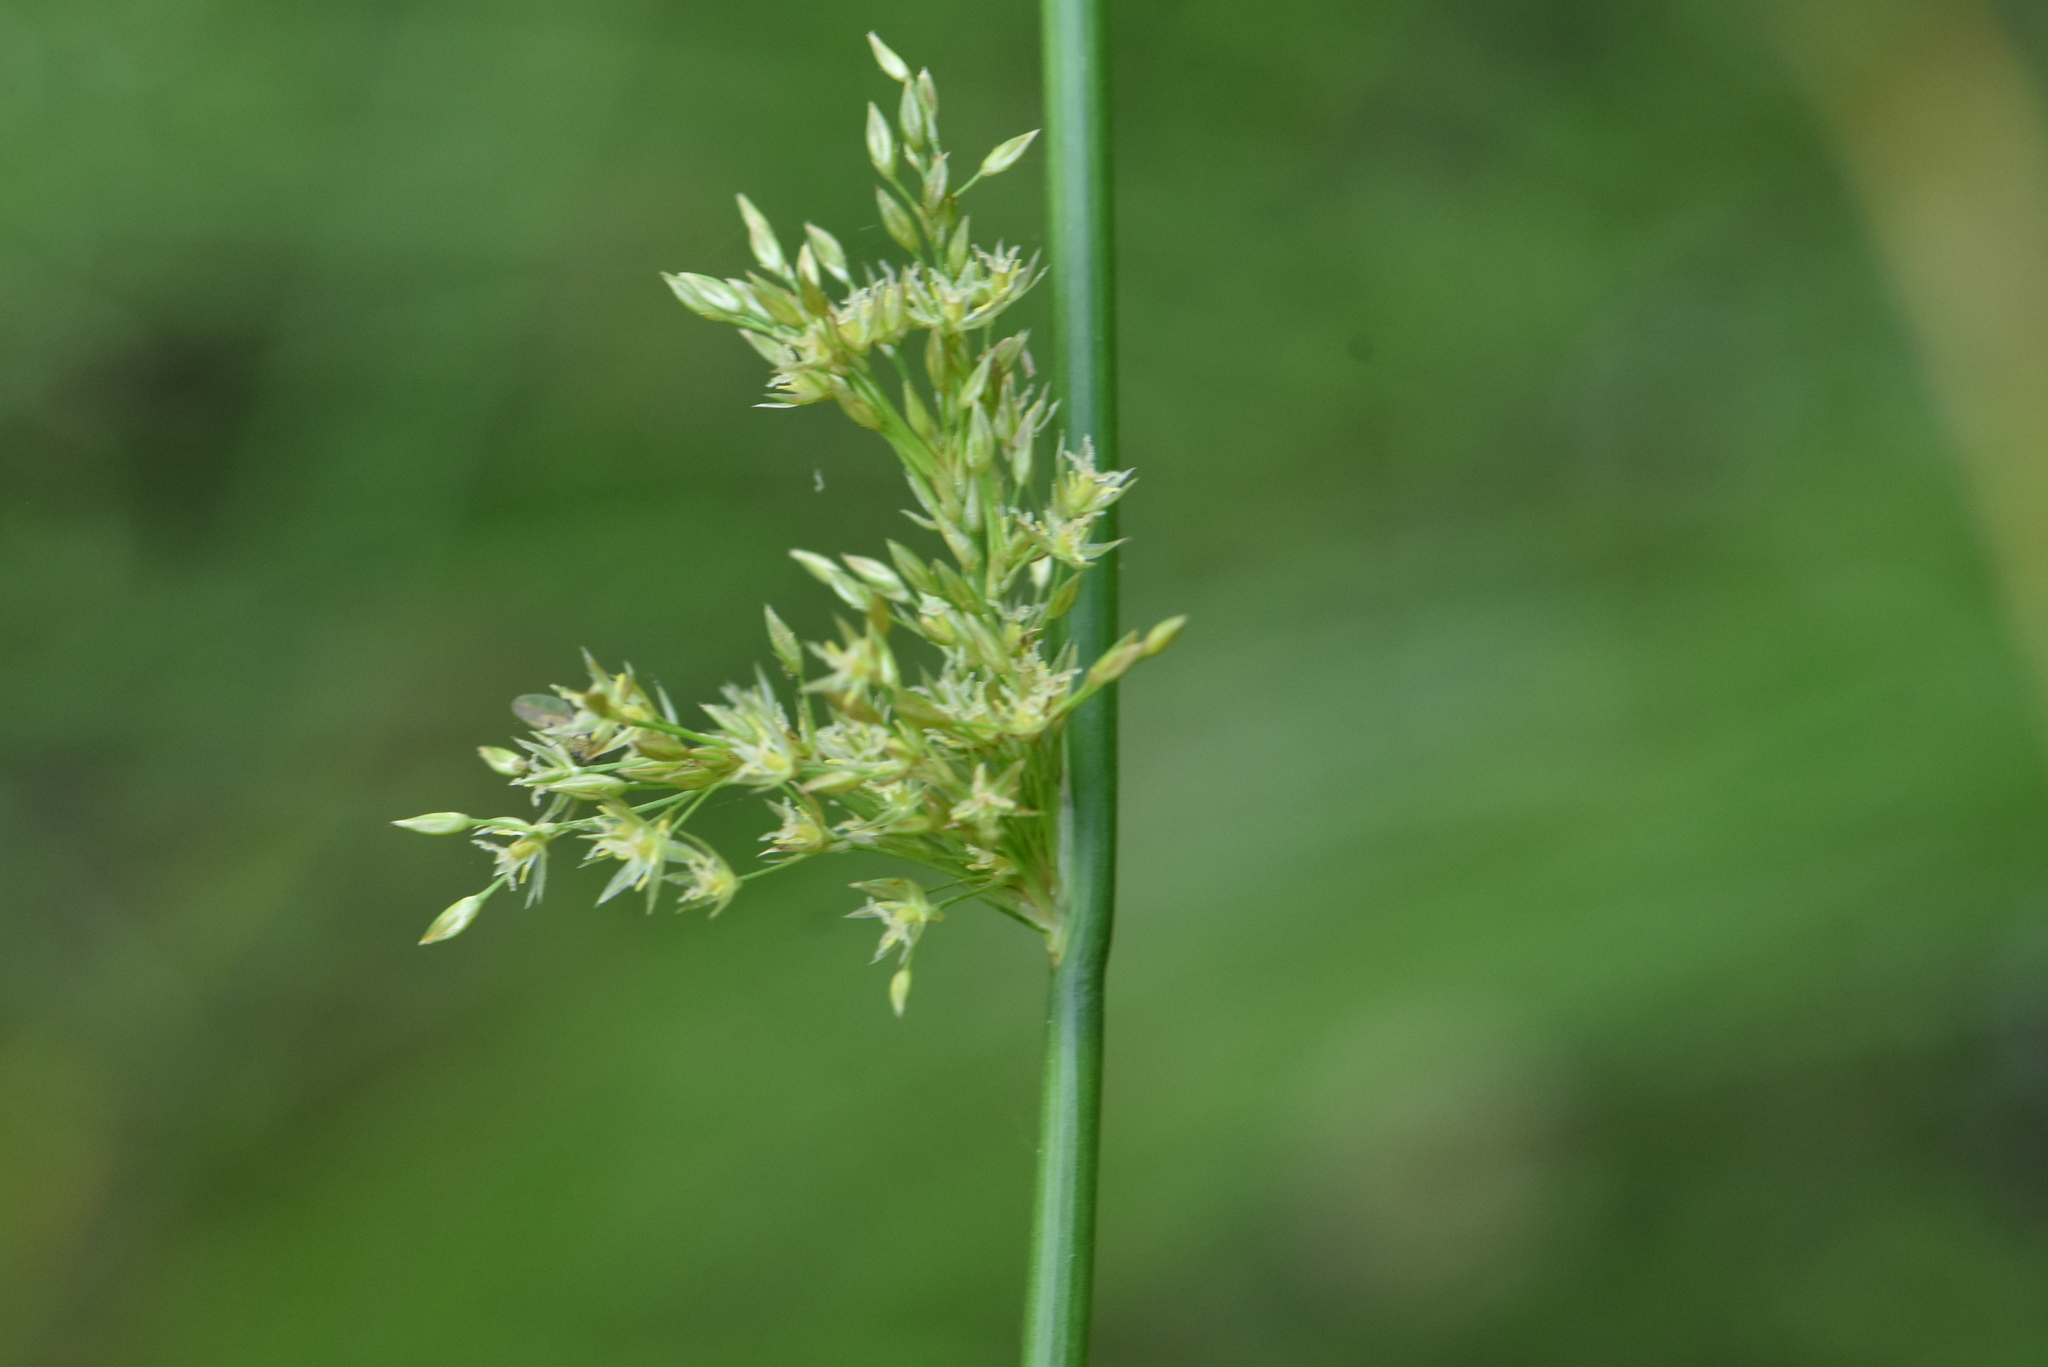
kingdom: Plantae
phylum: Tracheophyta
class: Liliopsida
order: Poales
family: Juncaceae
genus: Juncus
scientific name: Juncus effusus
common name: Soft rush
